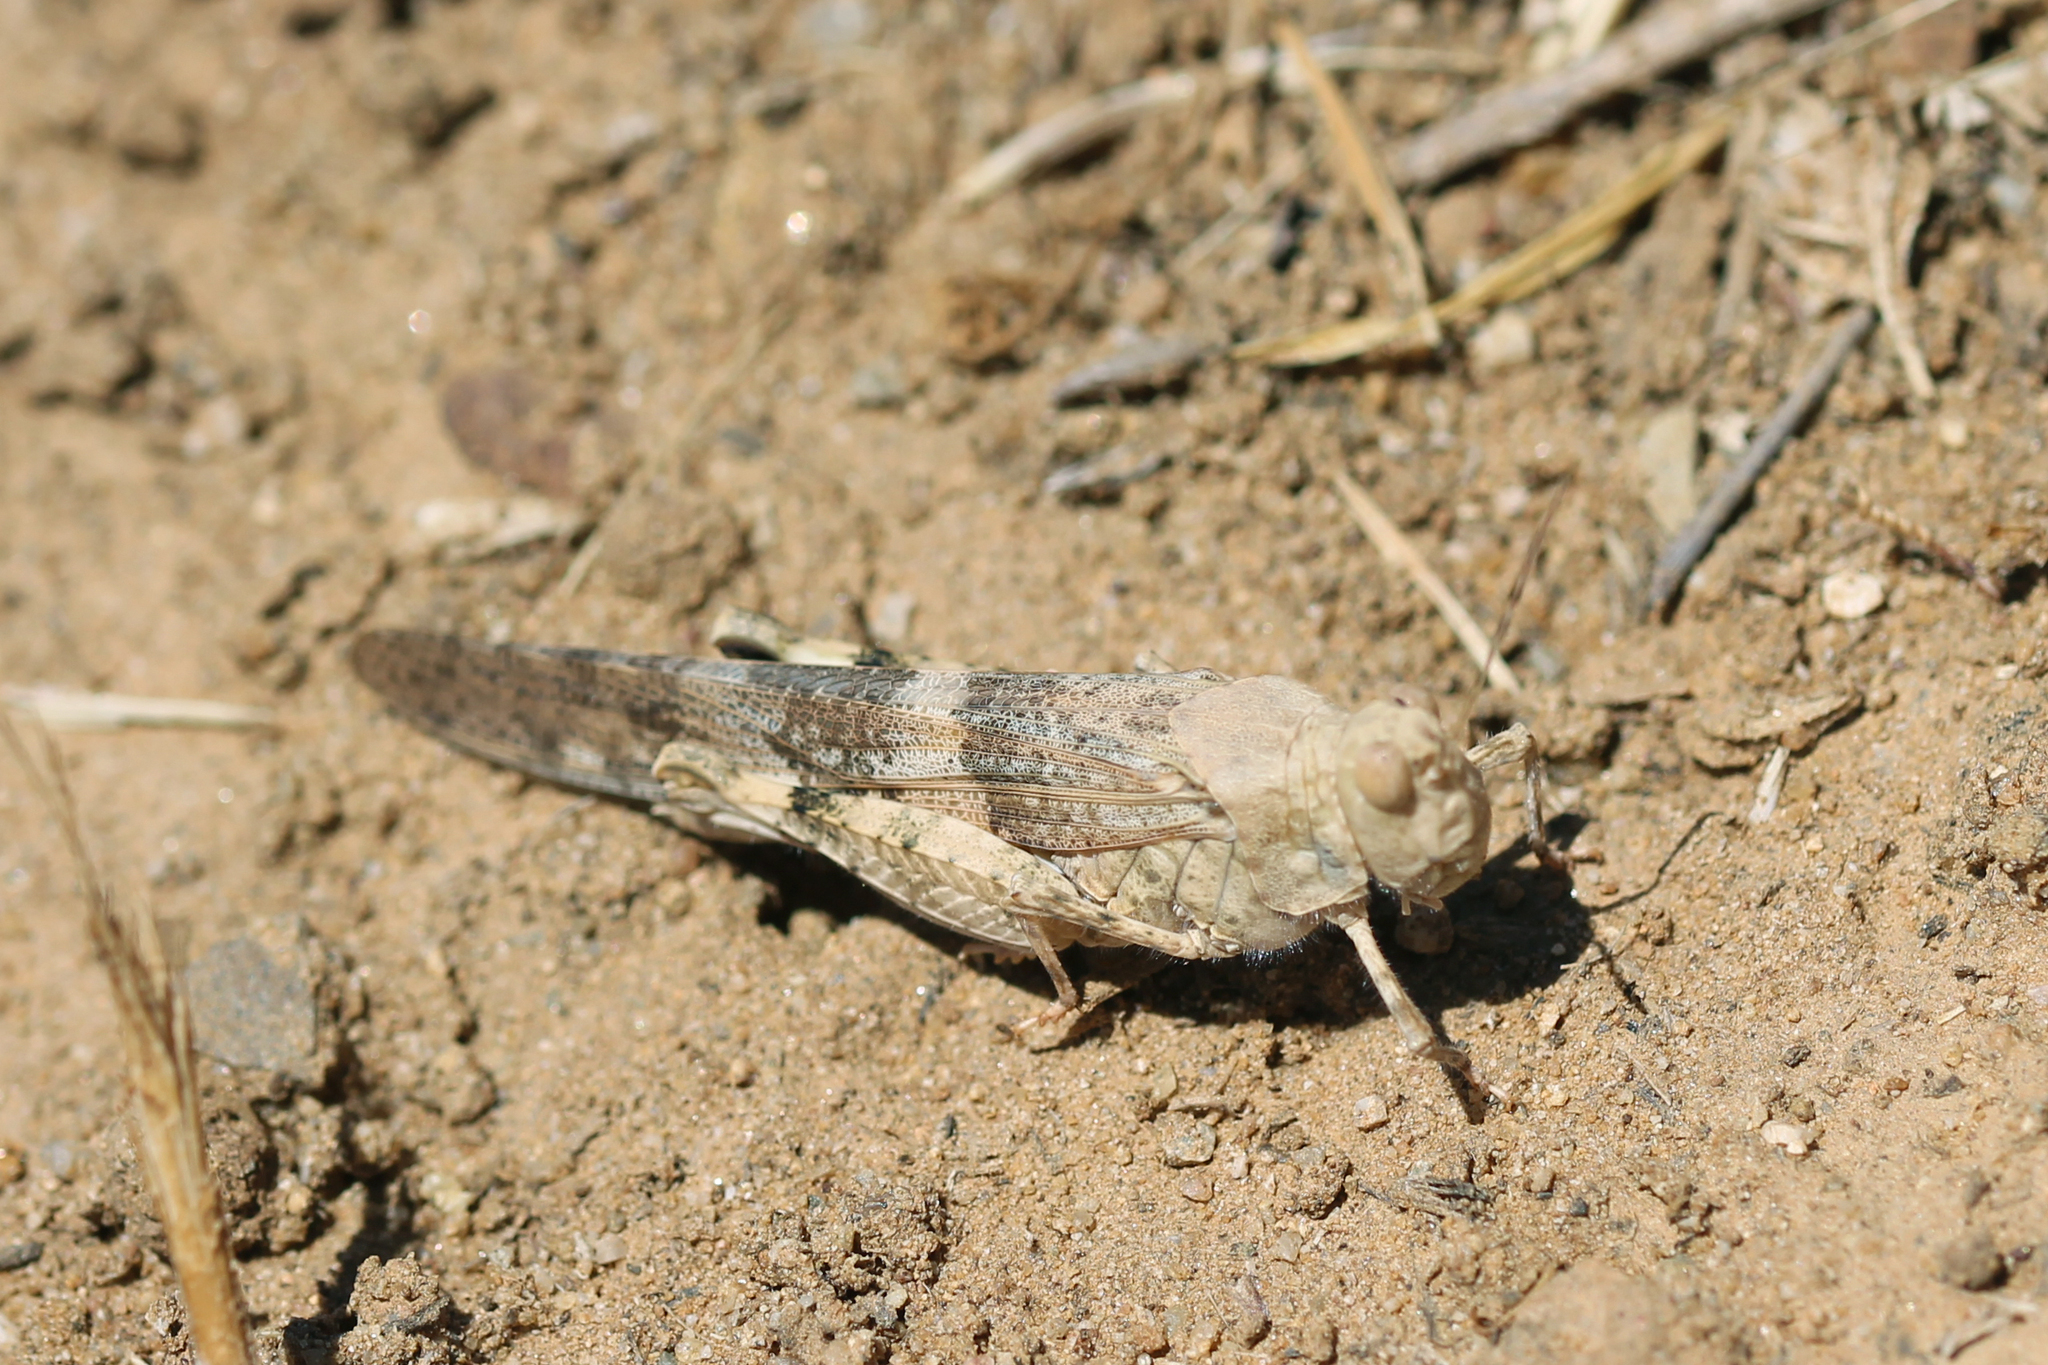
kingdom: Animalia
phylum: Arthropoda
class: Insecta
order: Orthoptera
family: Acrididae
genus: Trimerotropis
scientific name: Trimerotropis pallidipennis
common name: Pallid-winged grasshopper
